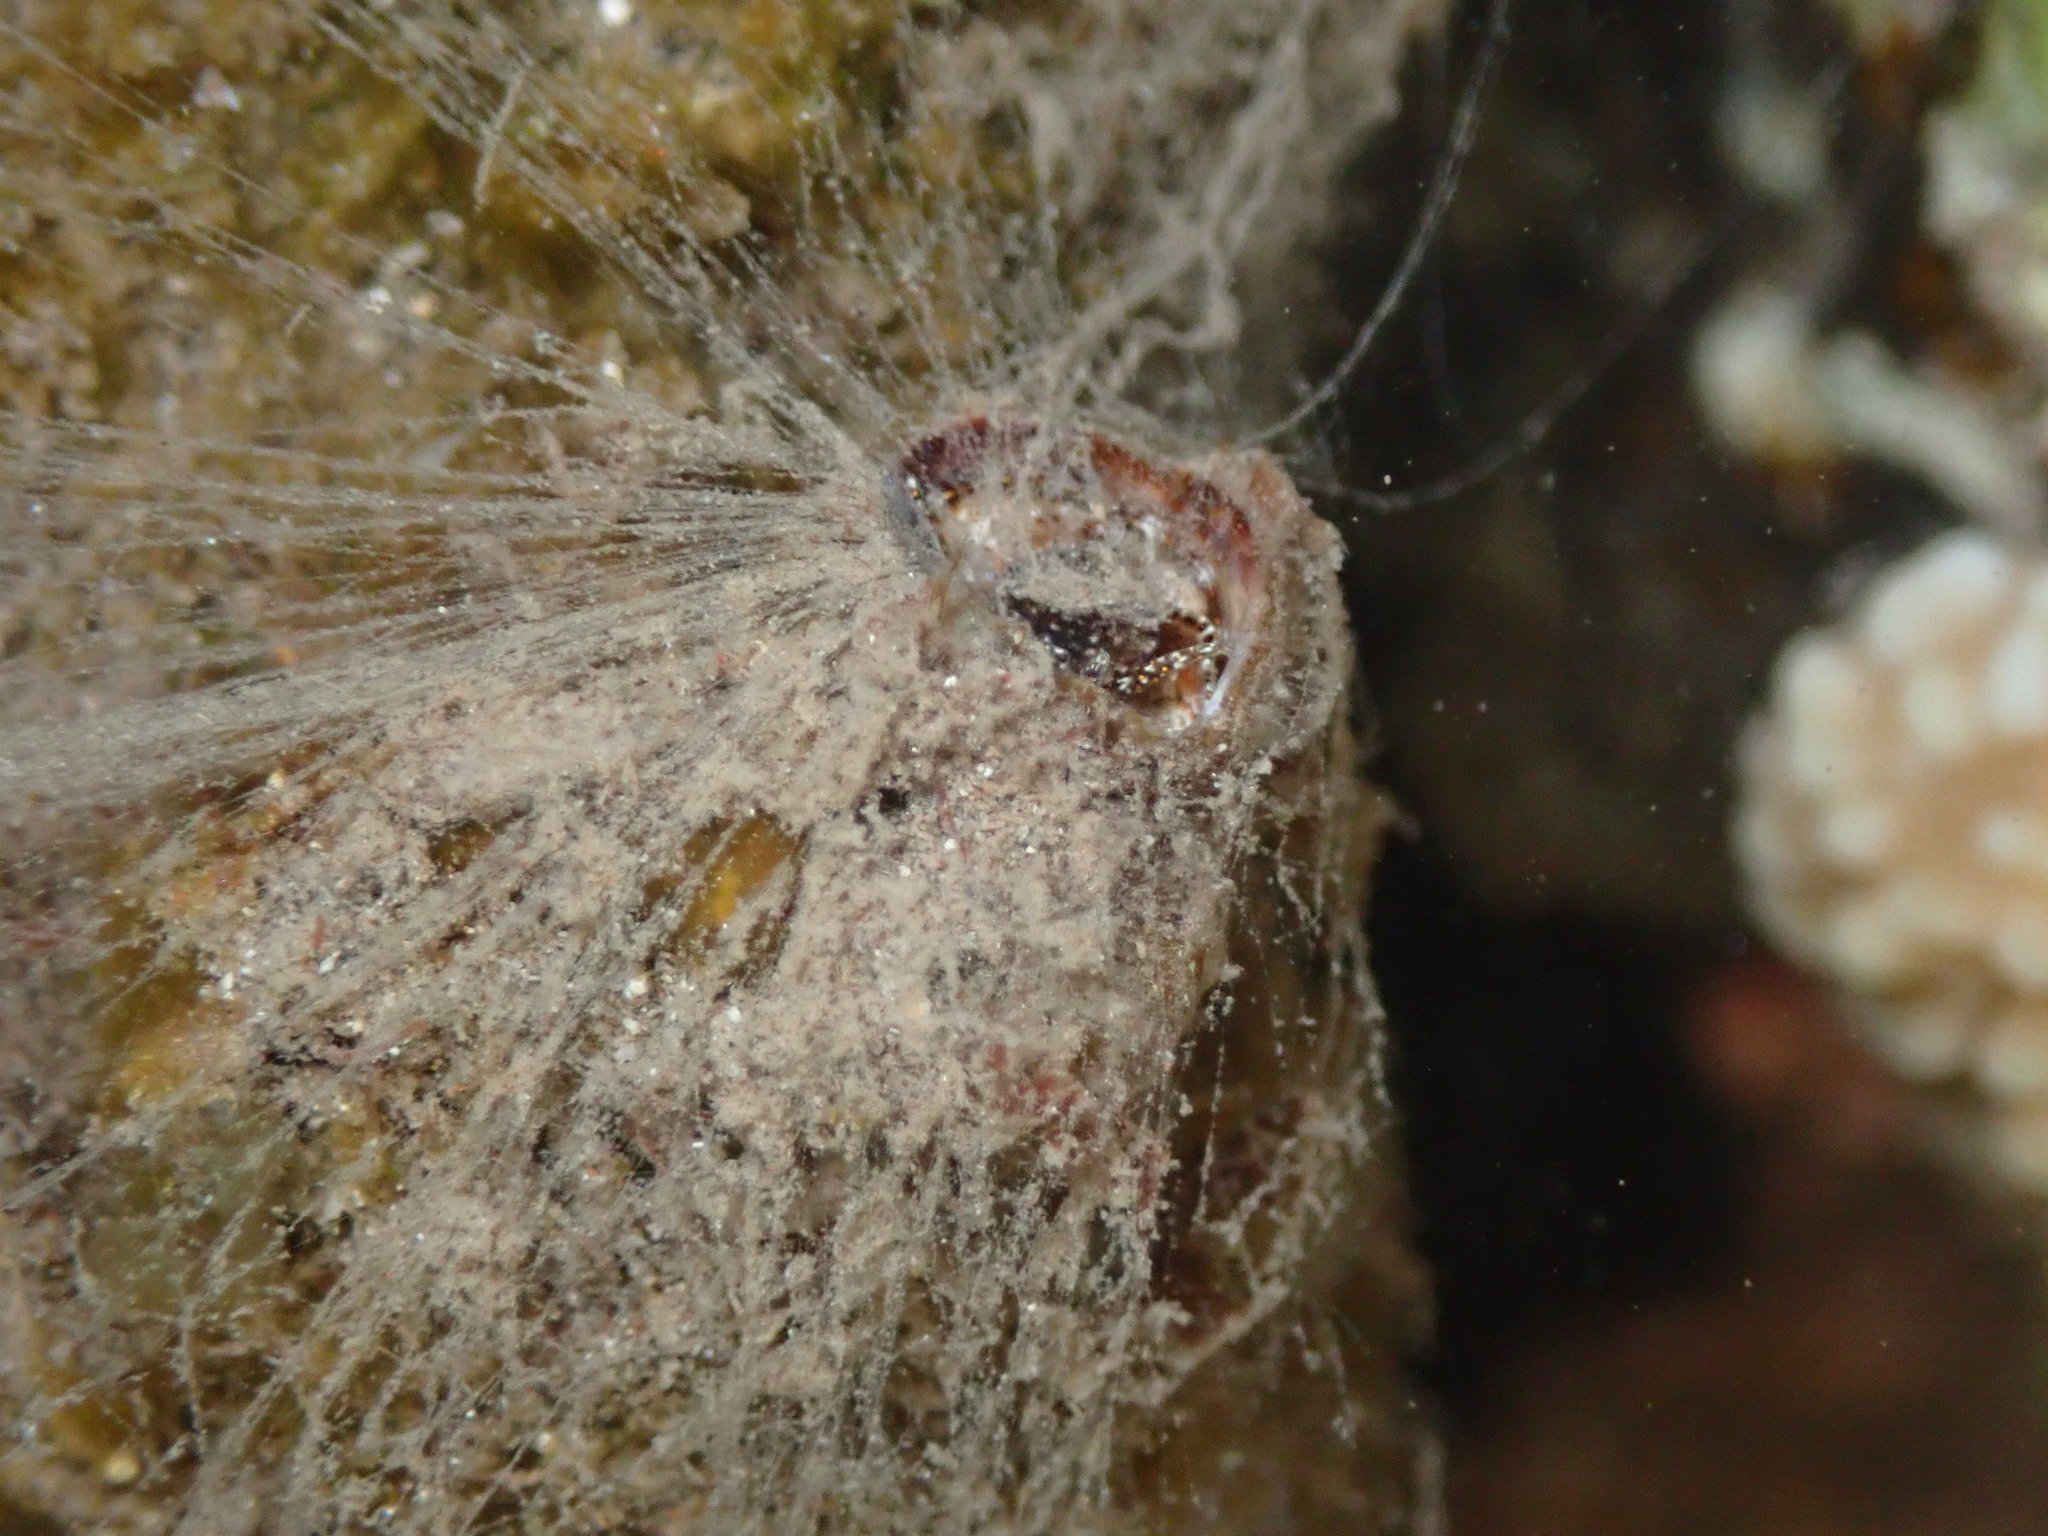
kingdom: Animalia
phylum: Mollusca
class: Gastropoda
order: Littorinimorpha
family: Vermetidae
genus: Thylacodes
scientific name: Thylacodes variabilis
